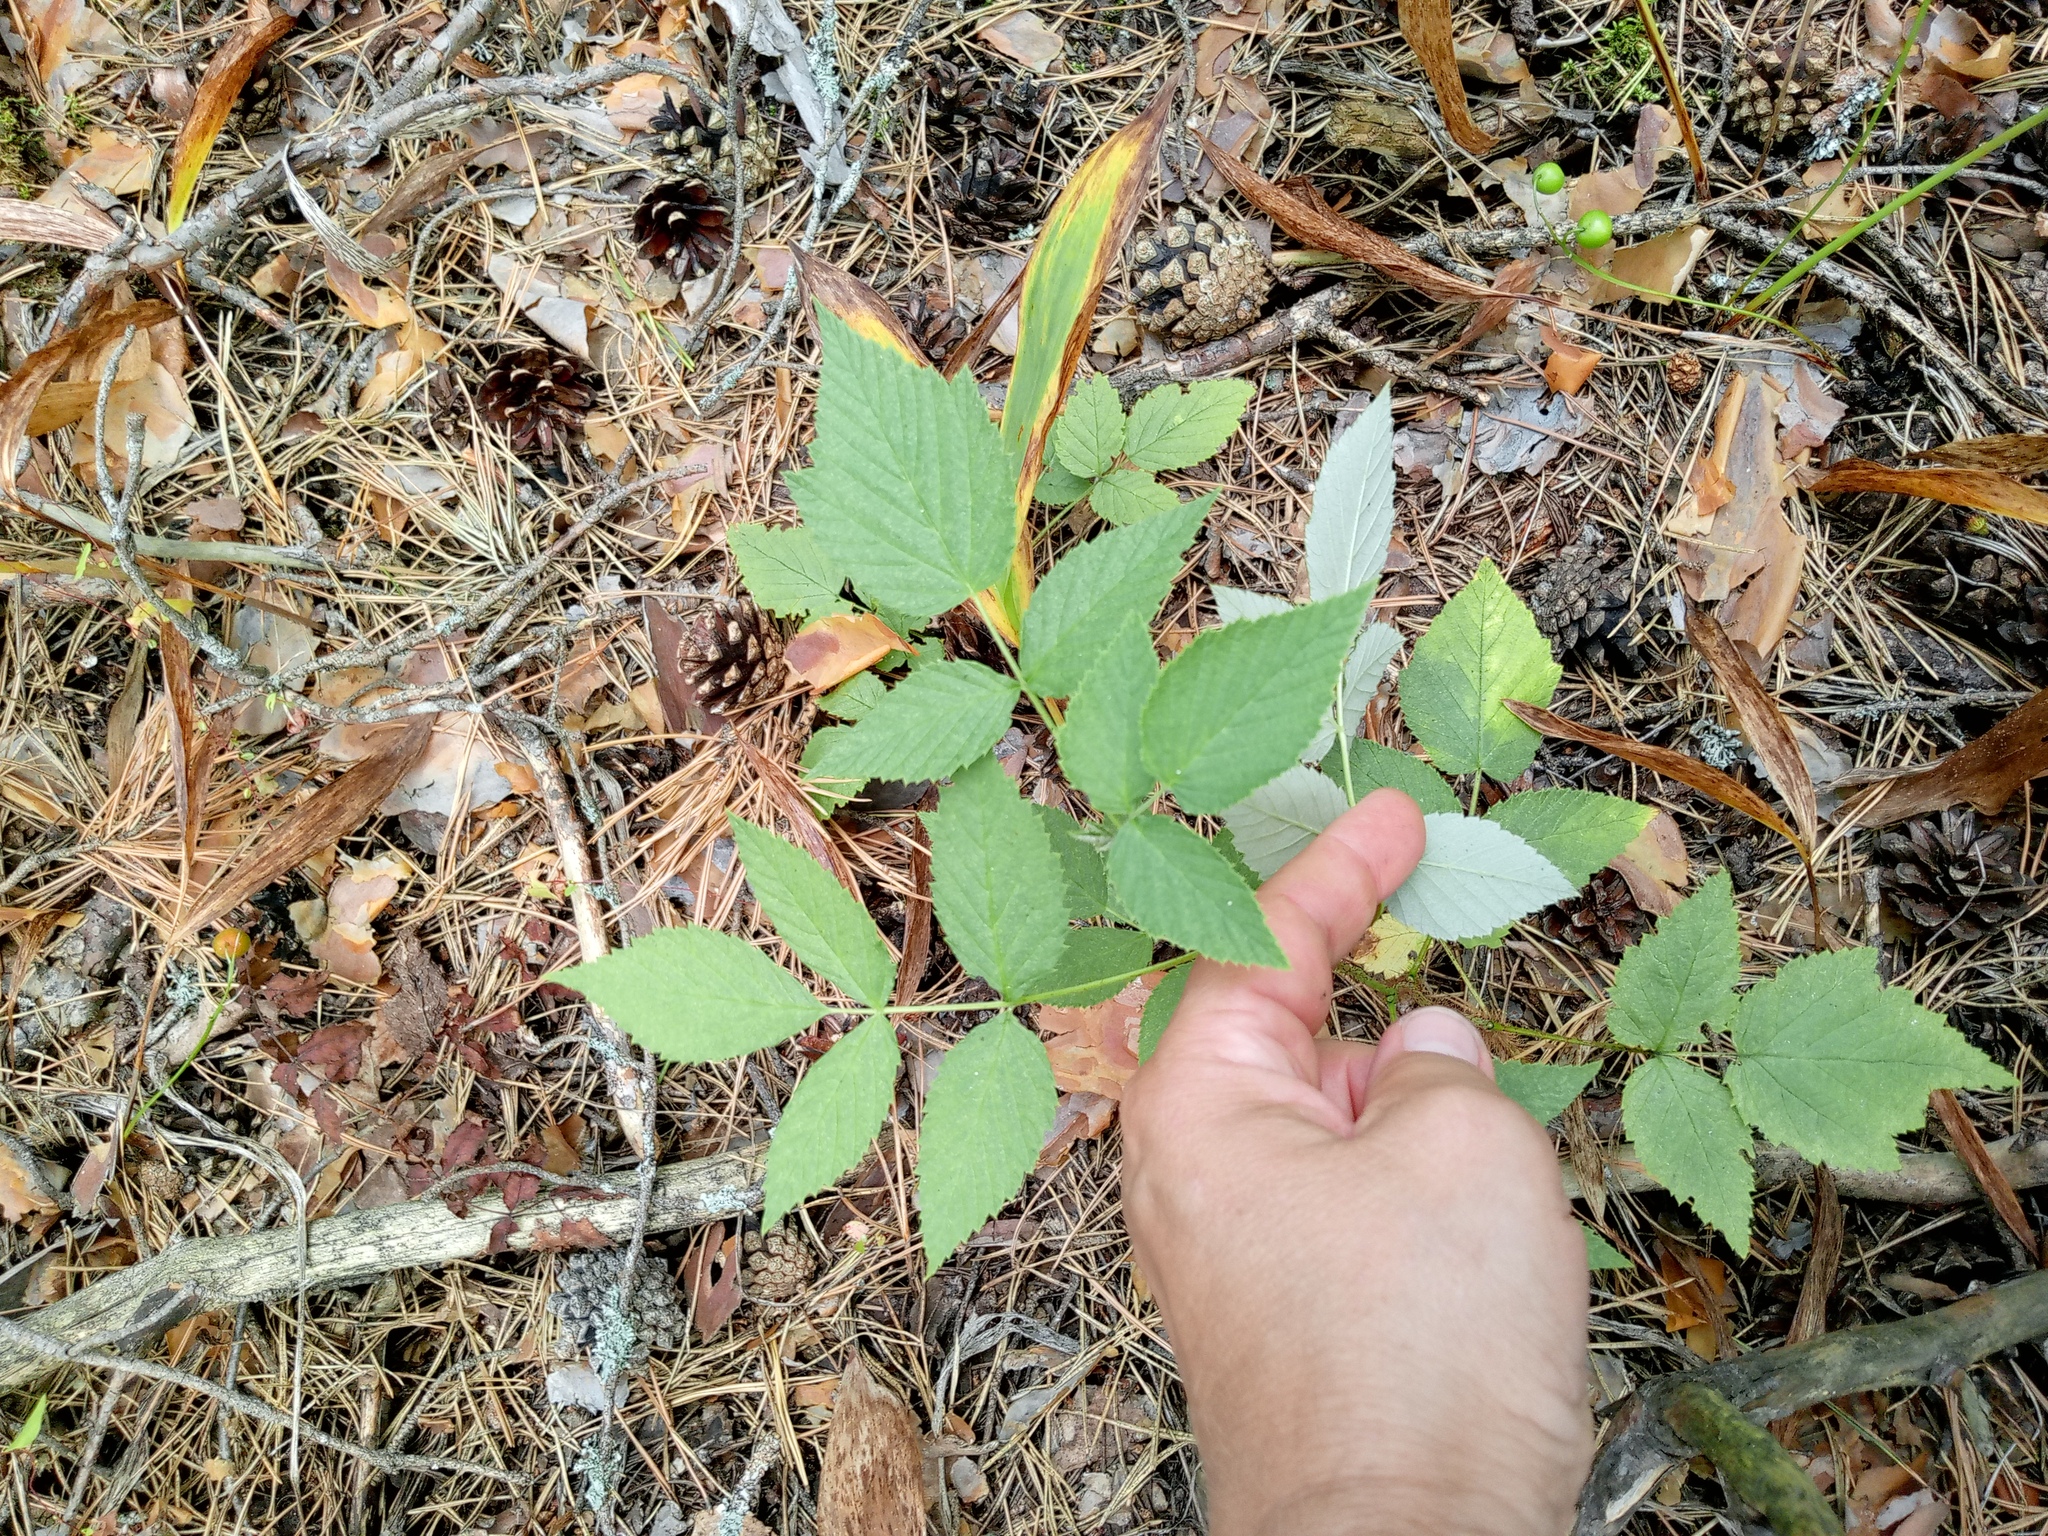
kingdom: Plantae
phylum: Tracheophyta
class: Magnoliopsida
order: Rosales
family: Rosaceae
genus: Rubus
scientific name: Rubus idaeus
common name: Raspberry
